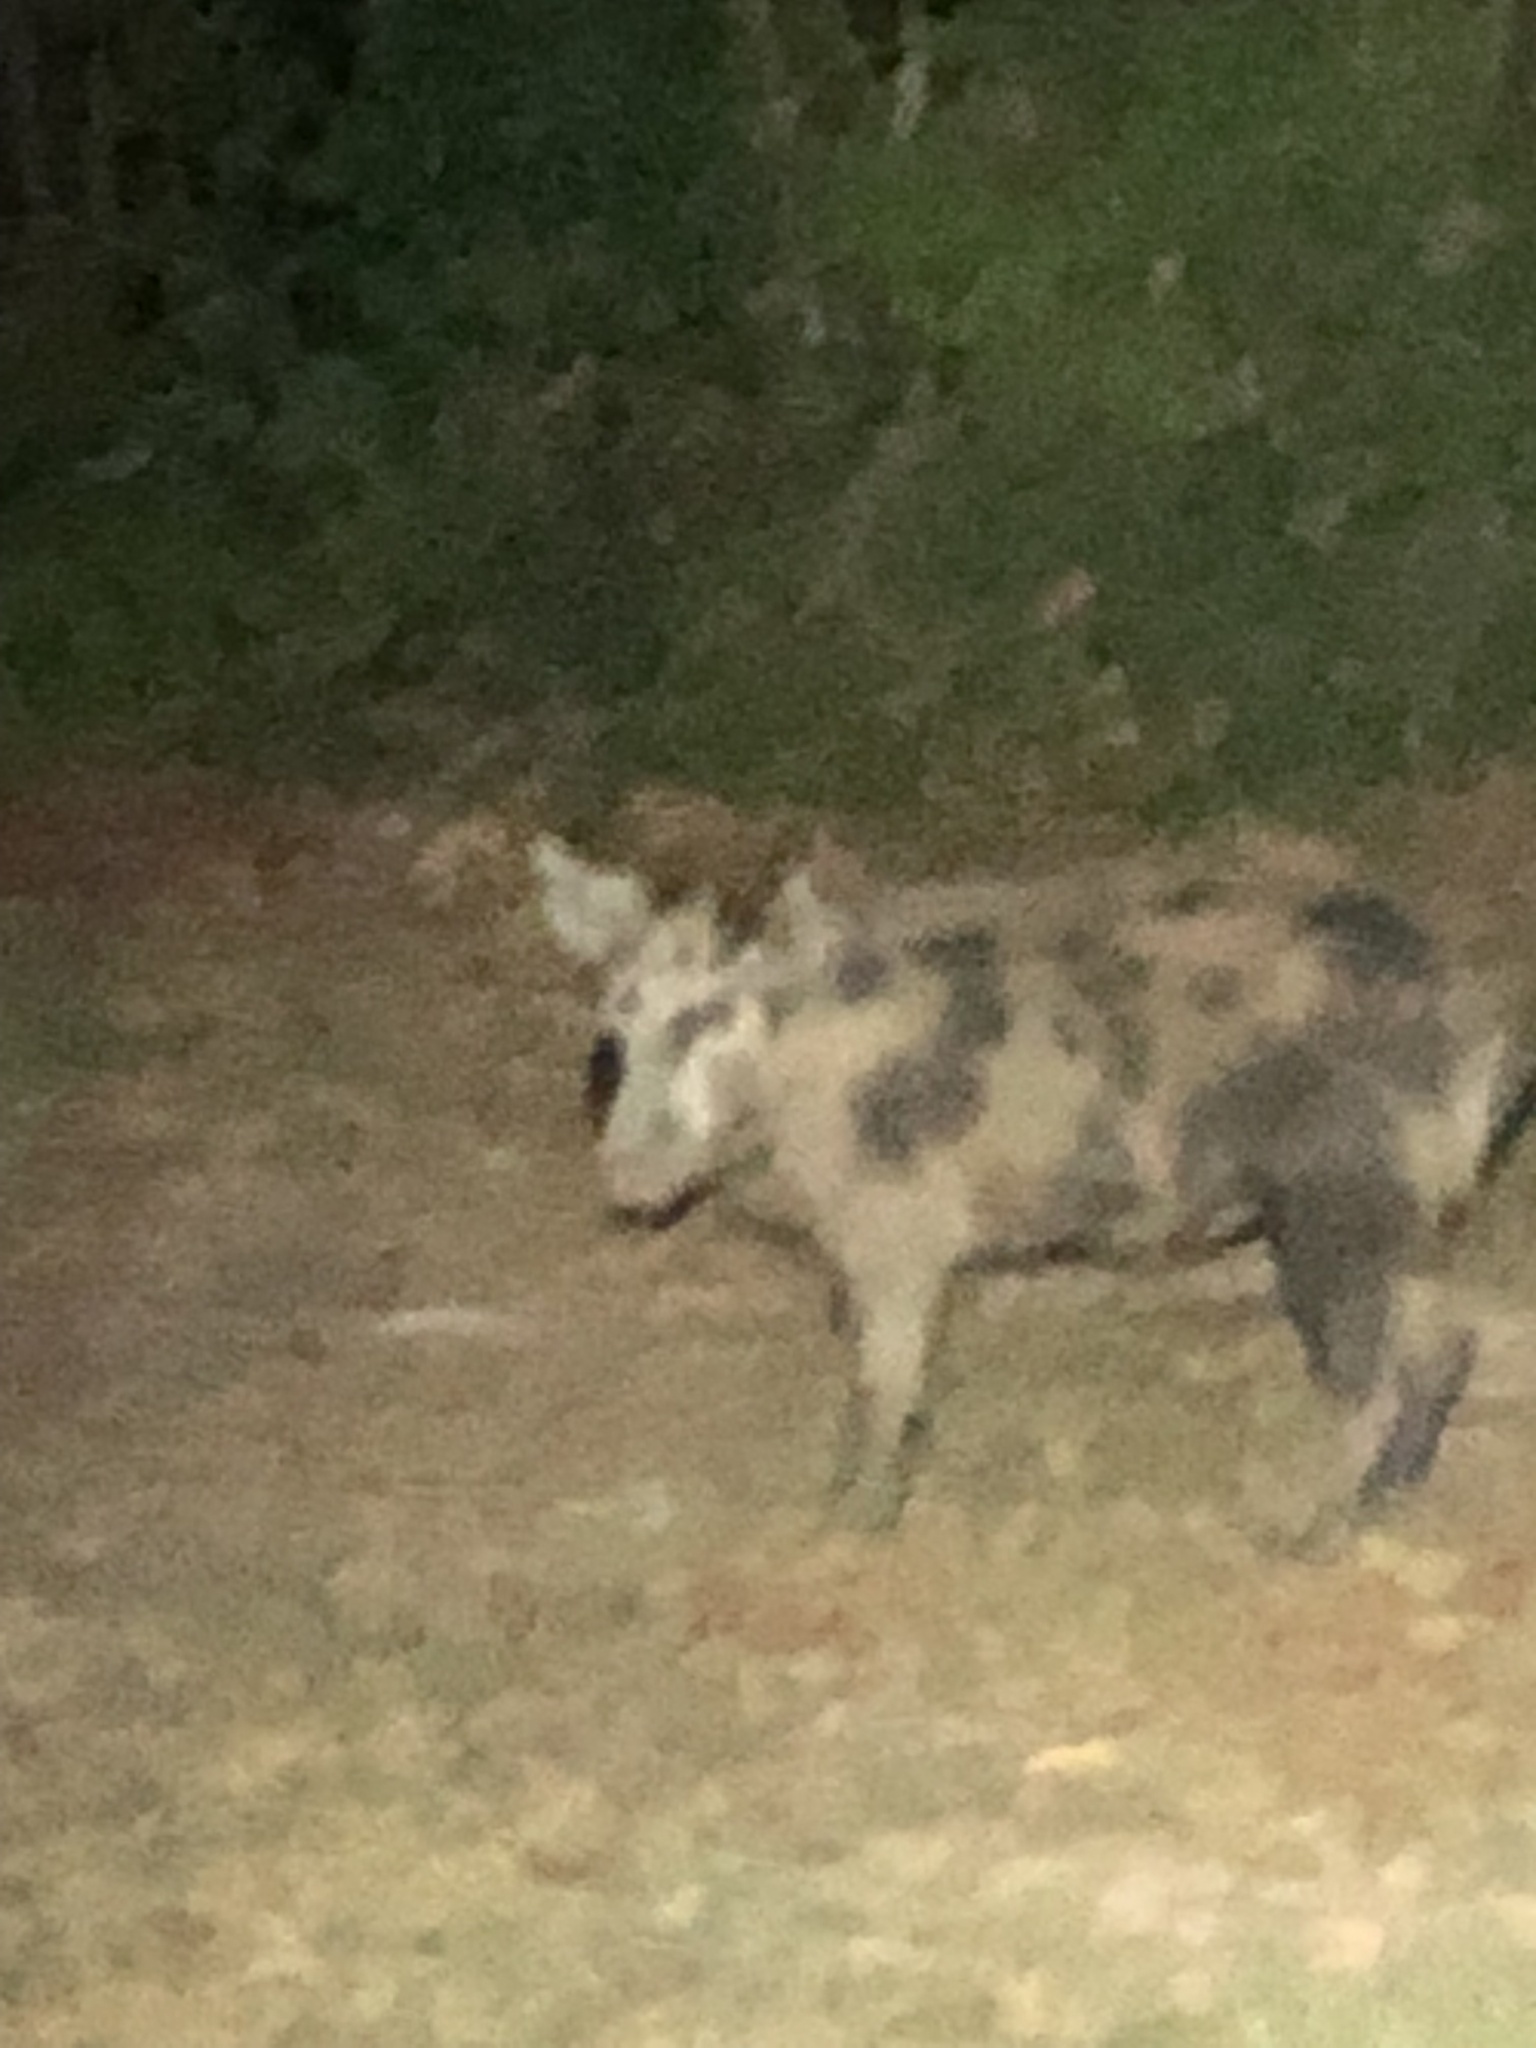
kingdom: Animalia
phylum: Chordata
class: Mammalia
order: Artiodactyla
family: Suidae
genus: Sus
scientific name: Sus scrofa
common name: Wild boar
